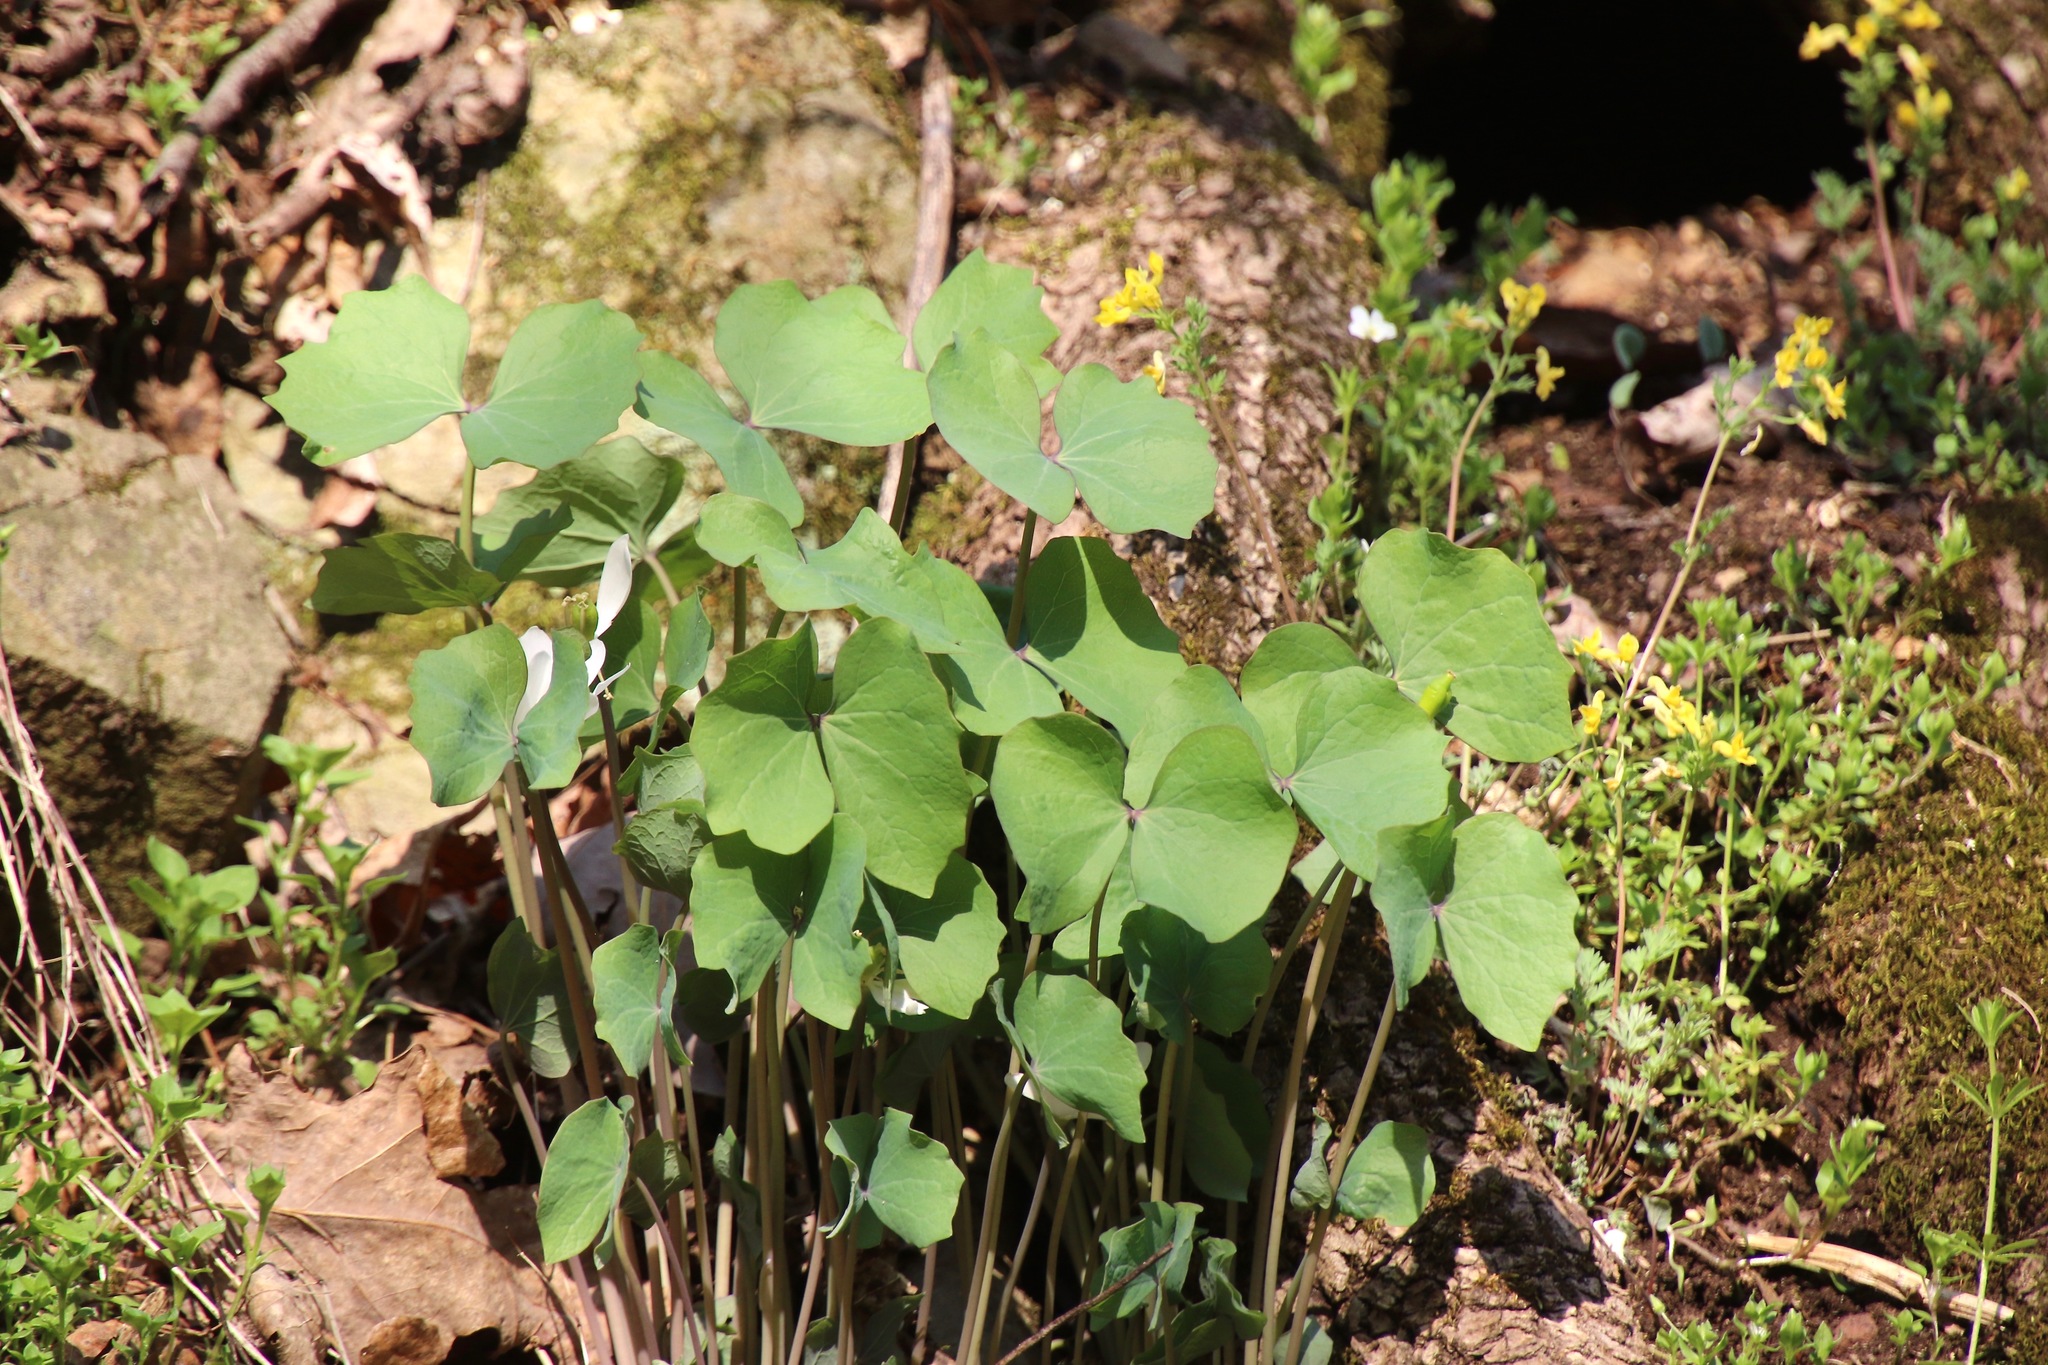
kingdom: Plantae
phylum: Tracheophyta
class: Magnoliopsida
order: Ranunculales
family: Berberidaceae
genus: Jeffersonia
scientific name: Jeffersonia diphylla
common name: Rheumatism-root
